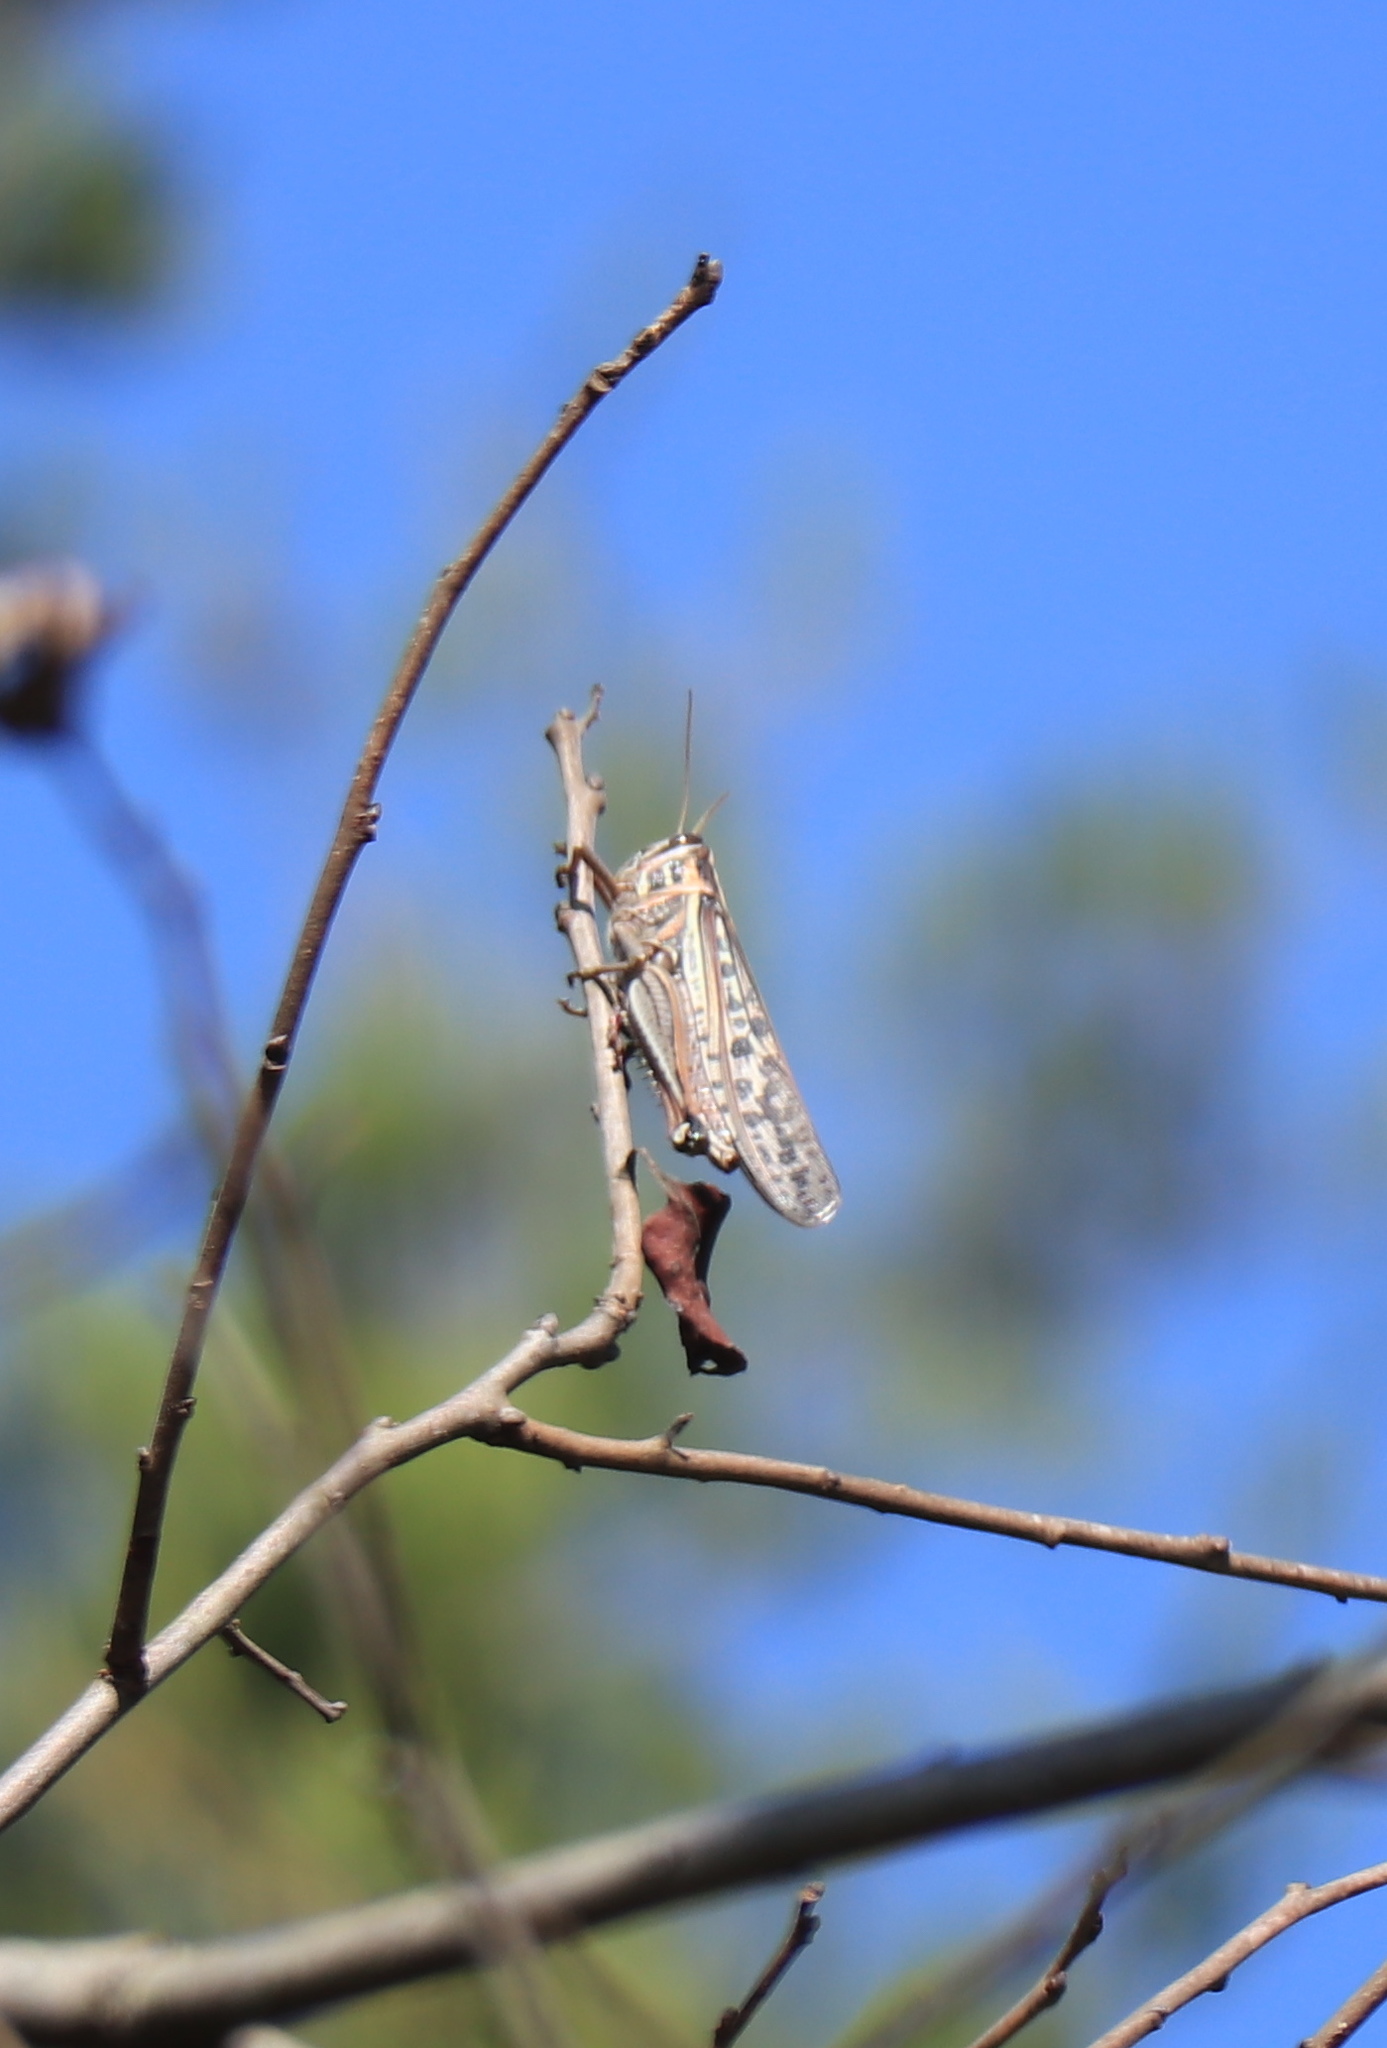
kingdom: Animalia
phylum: Arthropoda
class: Insecta
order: Orthoptera
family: Acrididae
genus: Schistocerca
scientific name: Schistocerca americana
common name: American bird locust
